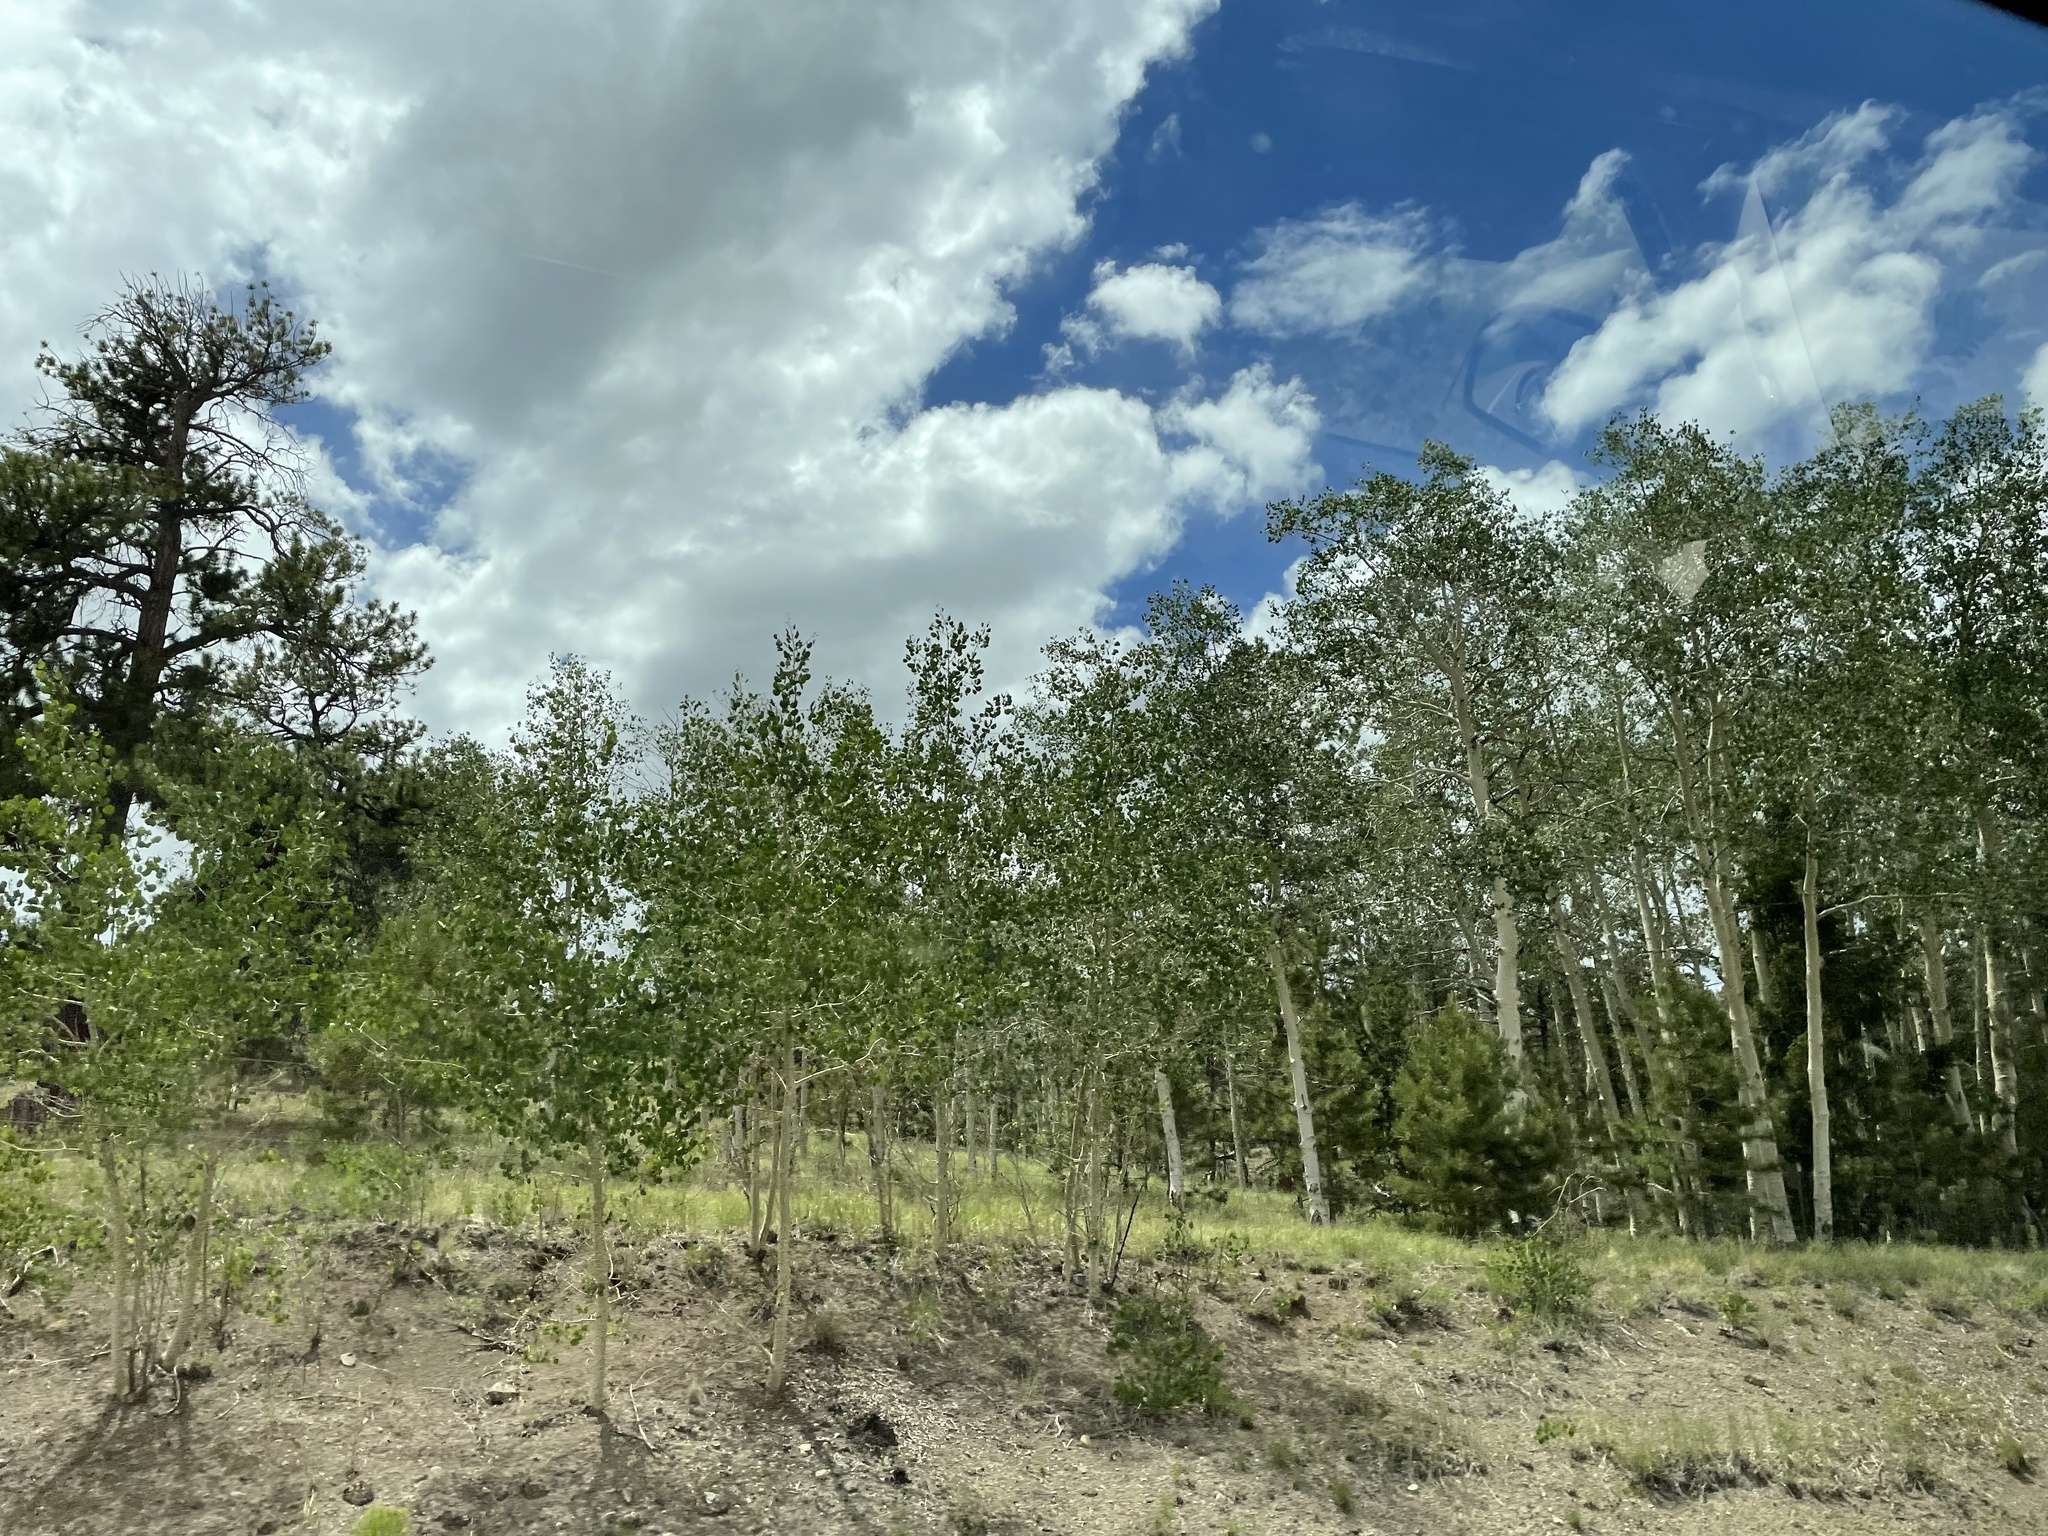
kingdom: Plantae
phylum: Tracheophyta
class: Magnoliopsida
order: Malpighiales
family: Salicaceae
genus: Populus
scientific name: Populus tremuloides
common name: Quaking aspen
